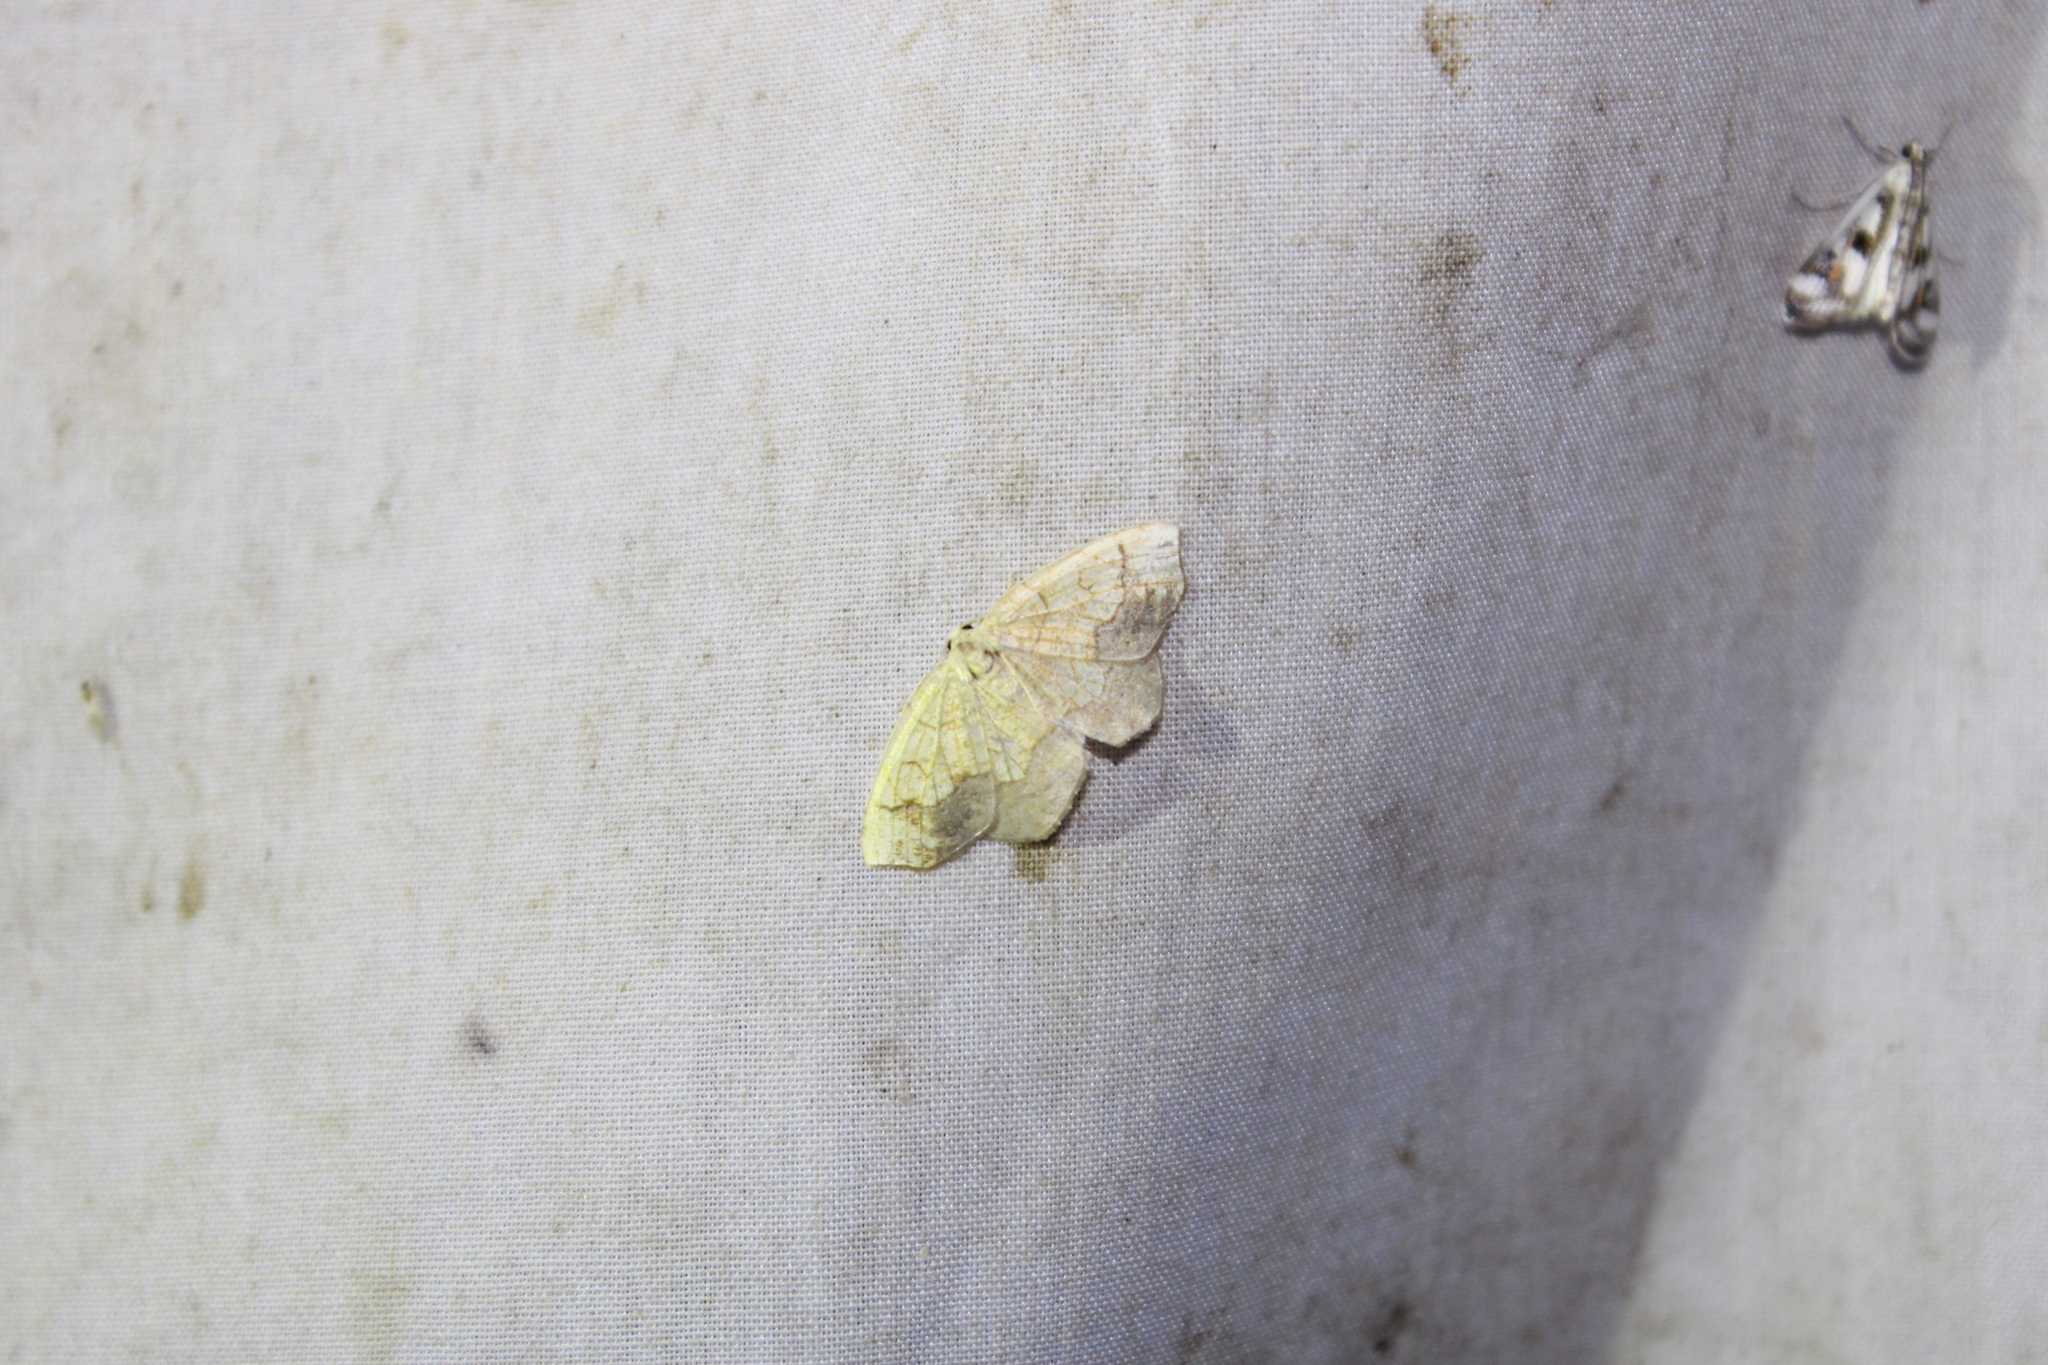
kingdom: Animalia
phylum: Arthropoda
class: Insecta
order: Lepidoptera
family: Geometridae
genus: Nematocampa
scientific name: Nematocampa resistaria
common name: Horned spanworm moth
